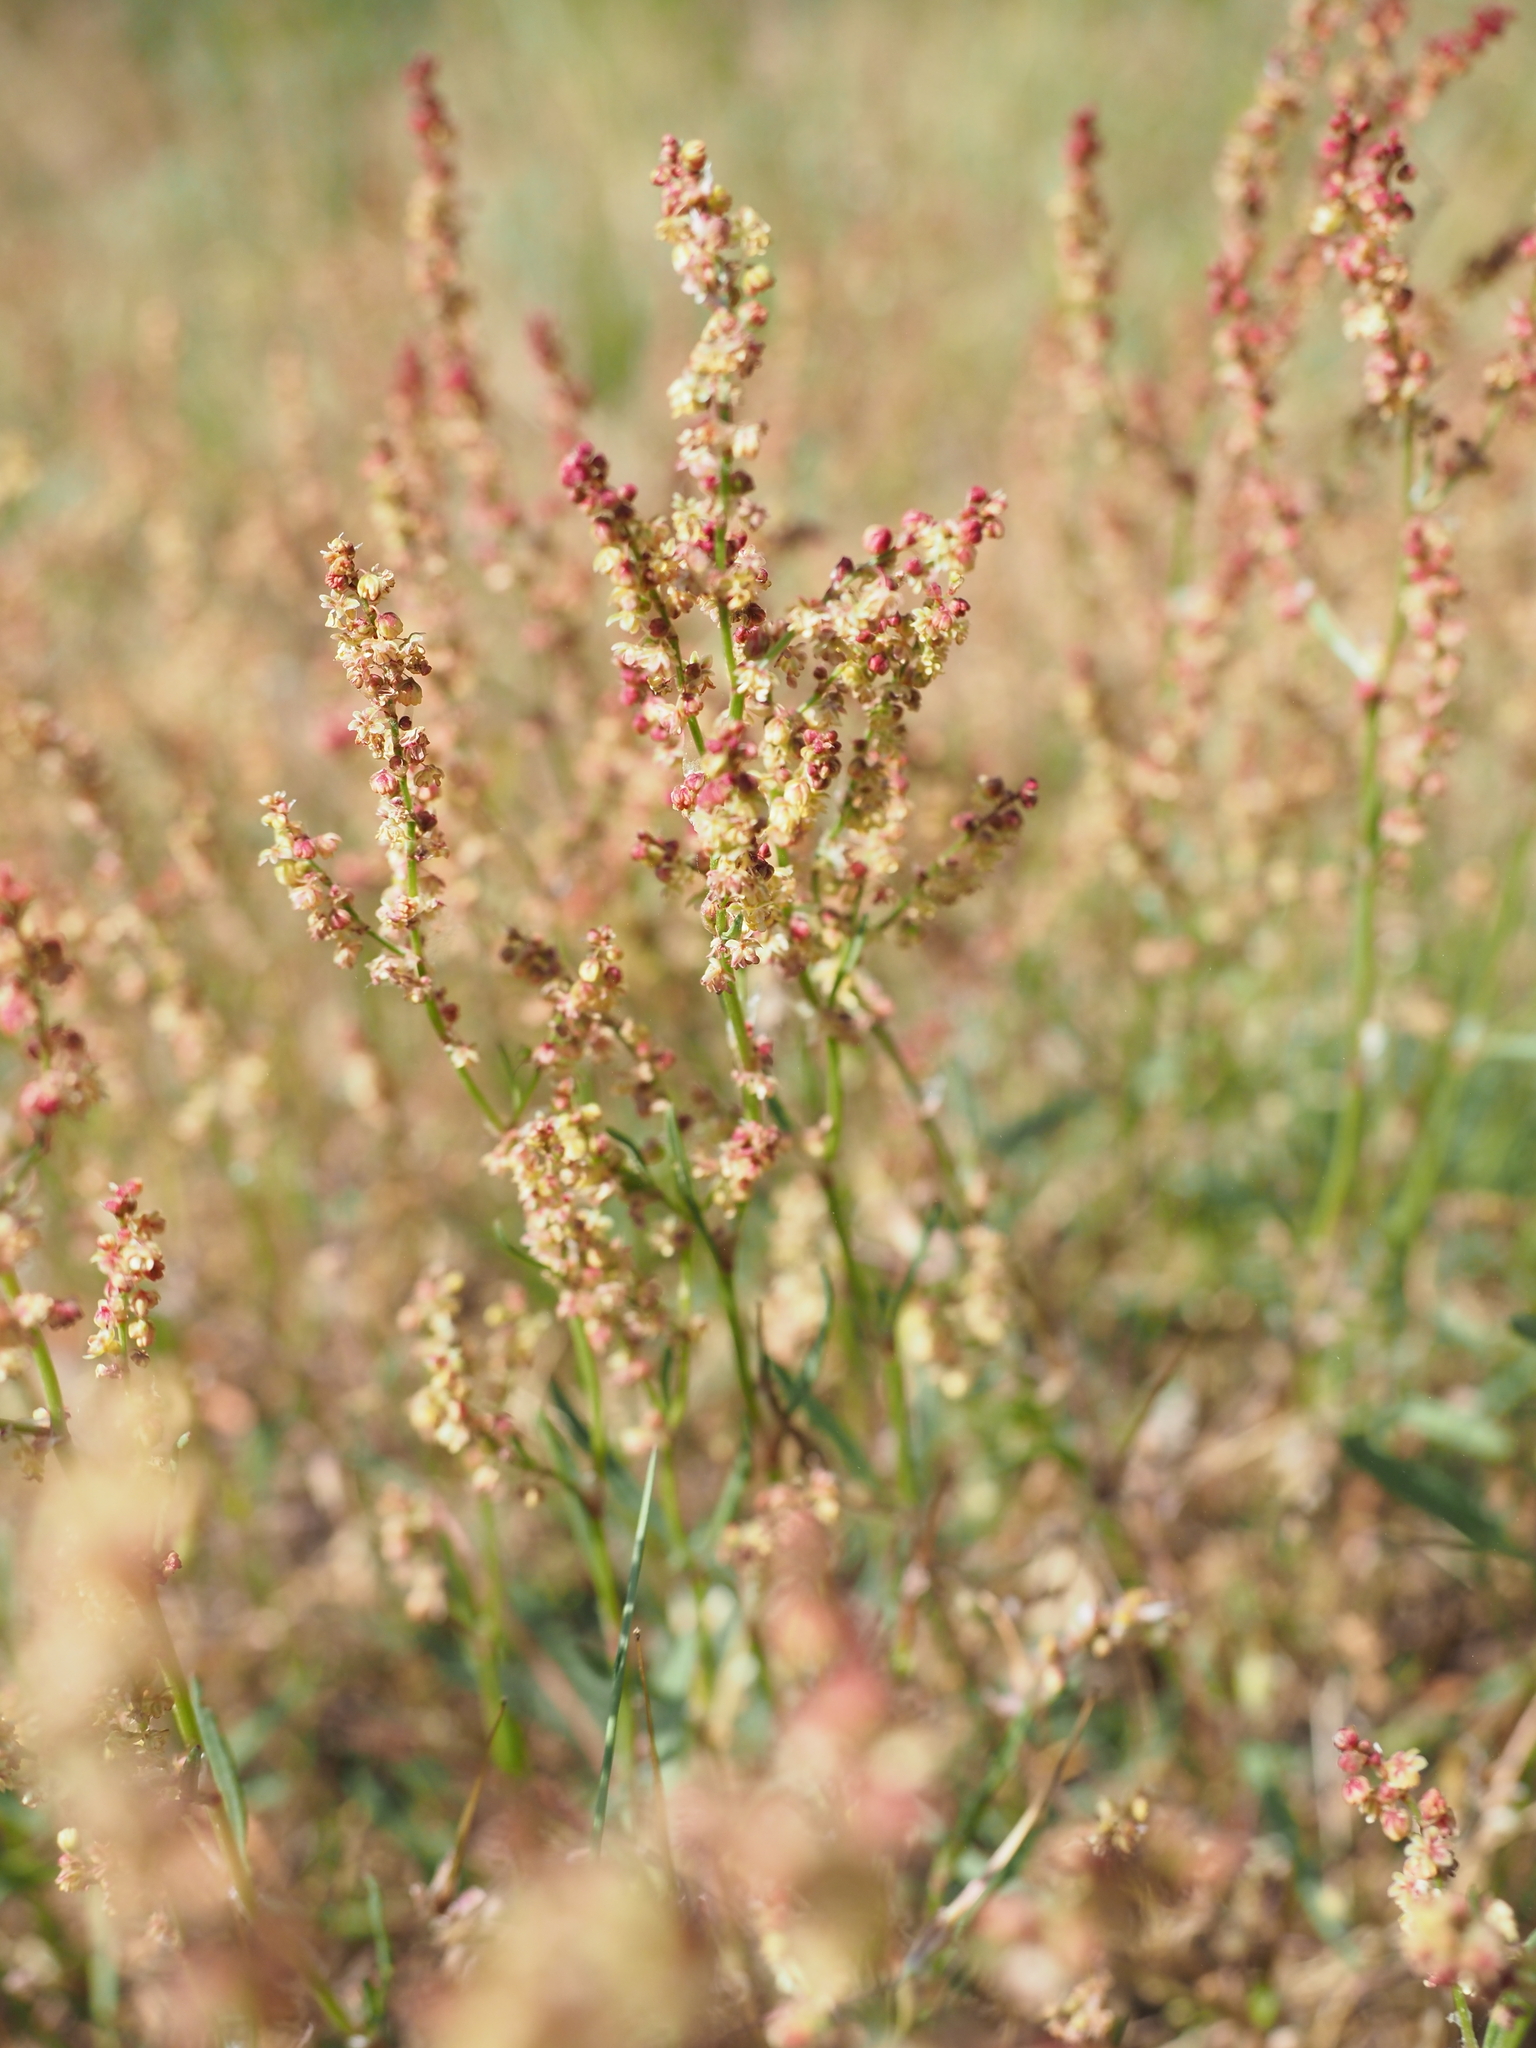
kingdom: Plantae
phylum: Tracheophyta
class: Magnoliopsida
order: Caryophyllales
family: Polygonaceae
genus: Rumex
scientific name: Rumex acetosella
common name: Common sheep sorrel
